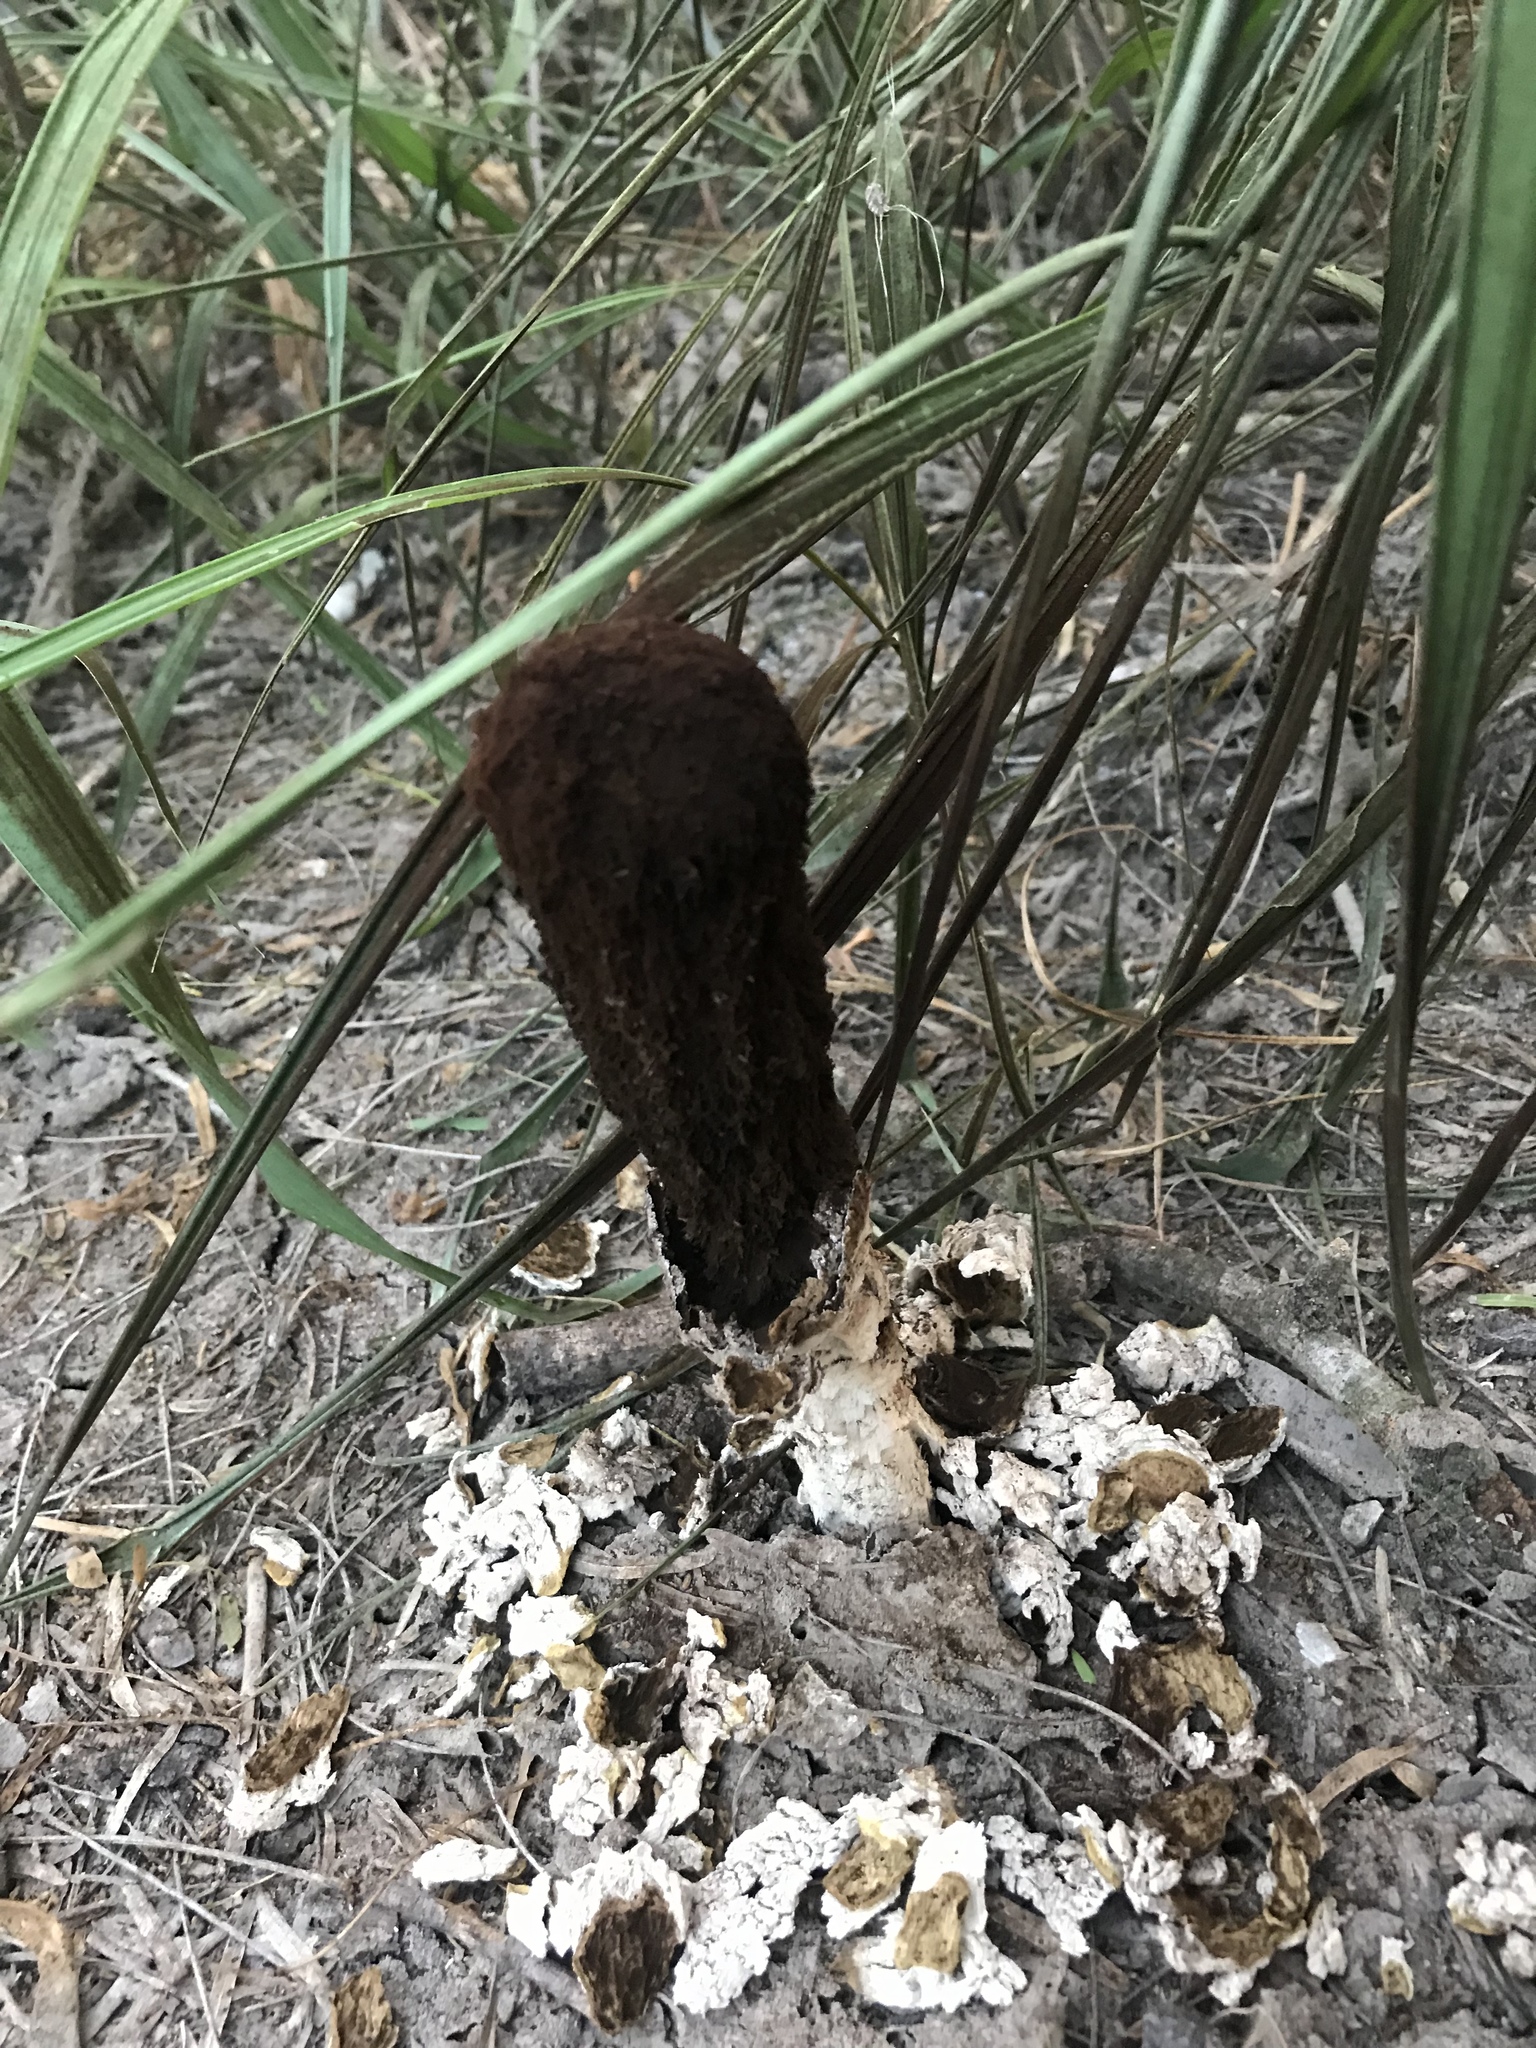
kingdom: Fungi
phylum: Basidiomycota
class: Agaricomycetes
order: Agaricales
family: Agaricaceae
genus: Podaxis
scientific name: Podaxis pistillaris
